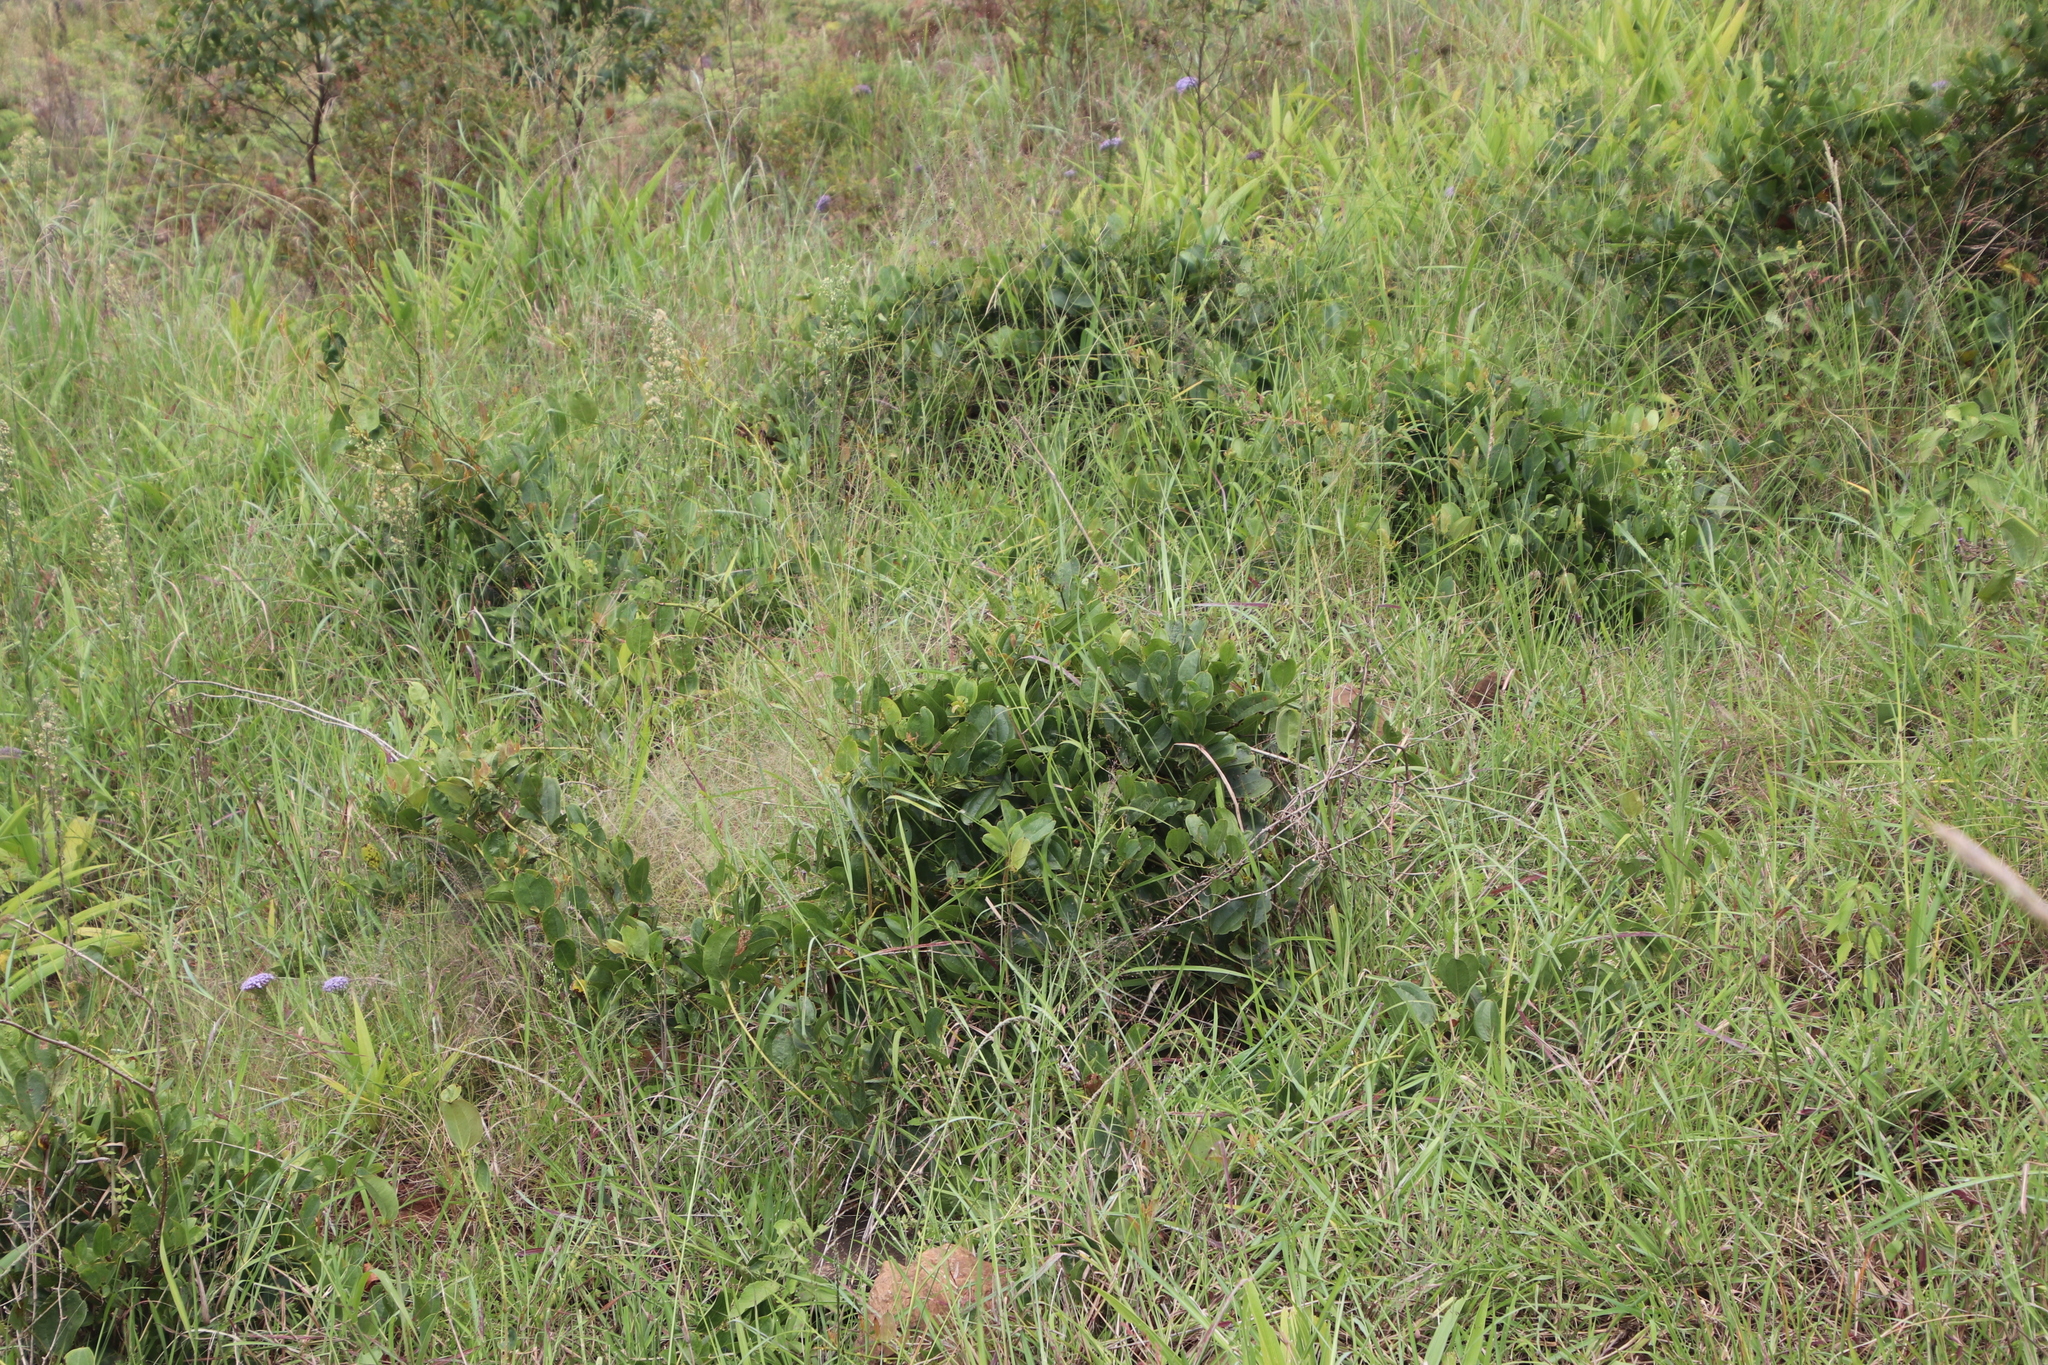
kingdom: Plantae
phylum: Tracheophyta
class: Liliopsida
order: Liliales
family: Smilacaceae
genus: Smilax
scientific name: Smilax anceps
